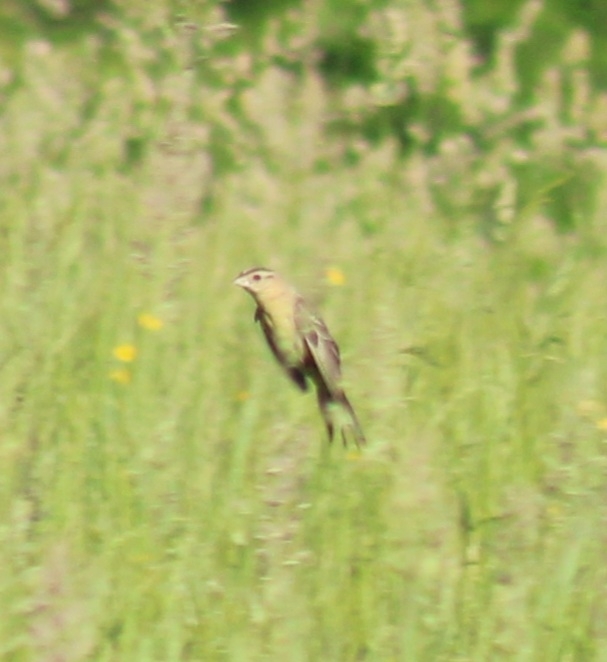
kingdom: Animalia
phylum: Chordata
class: Aves
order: Passeriformes
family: Icteridae
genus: Dolichonyx
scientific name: Dolichonyx oryzivorus
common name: Bobolink
